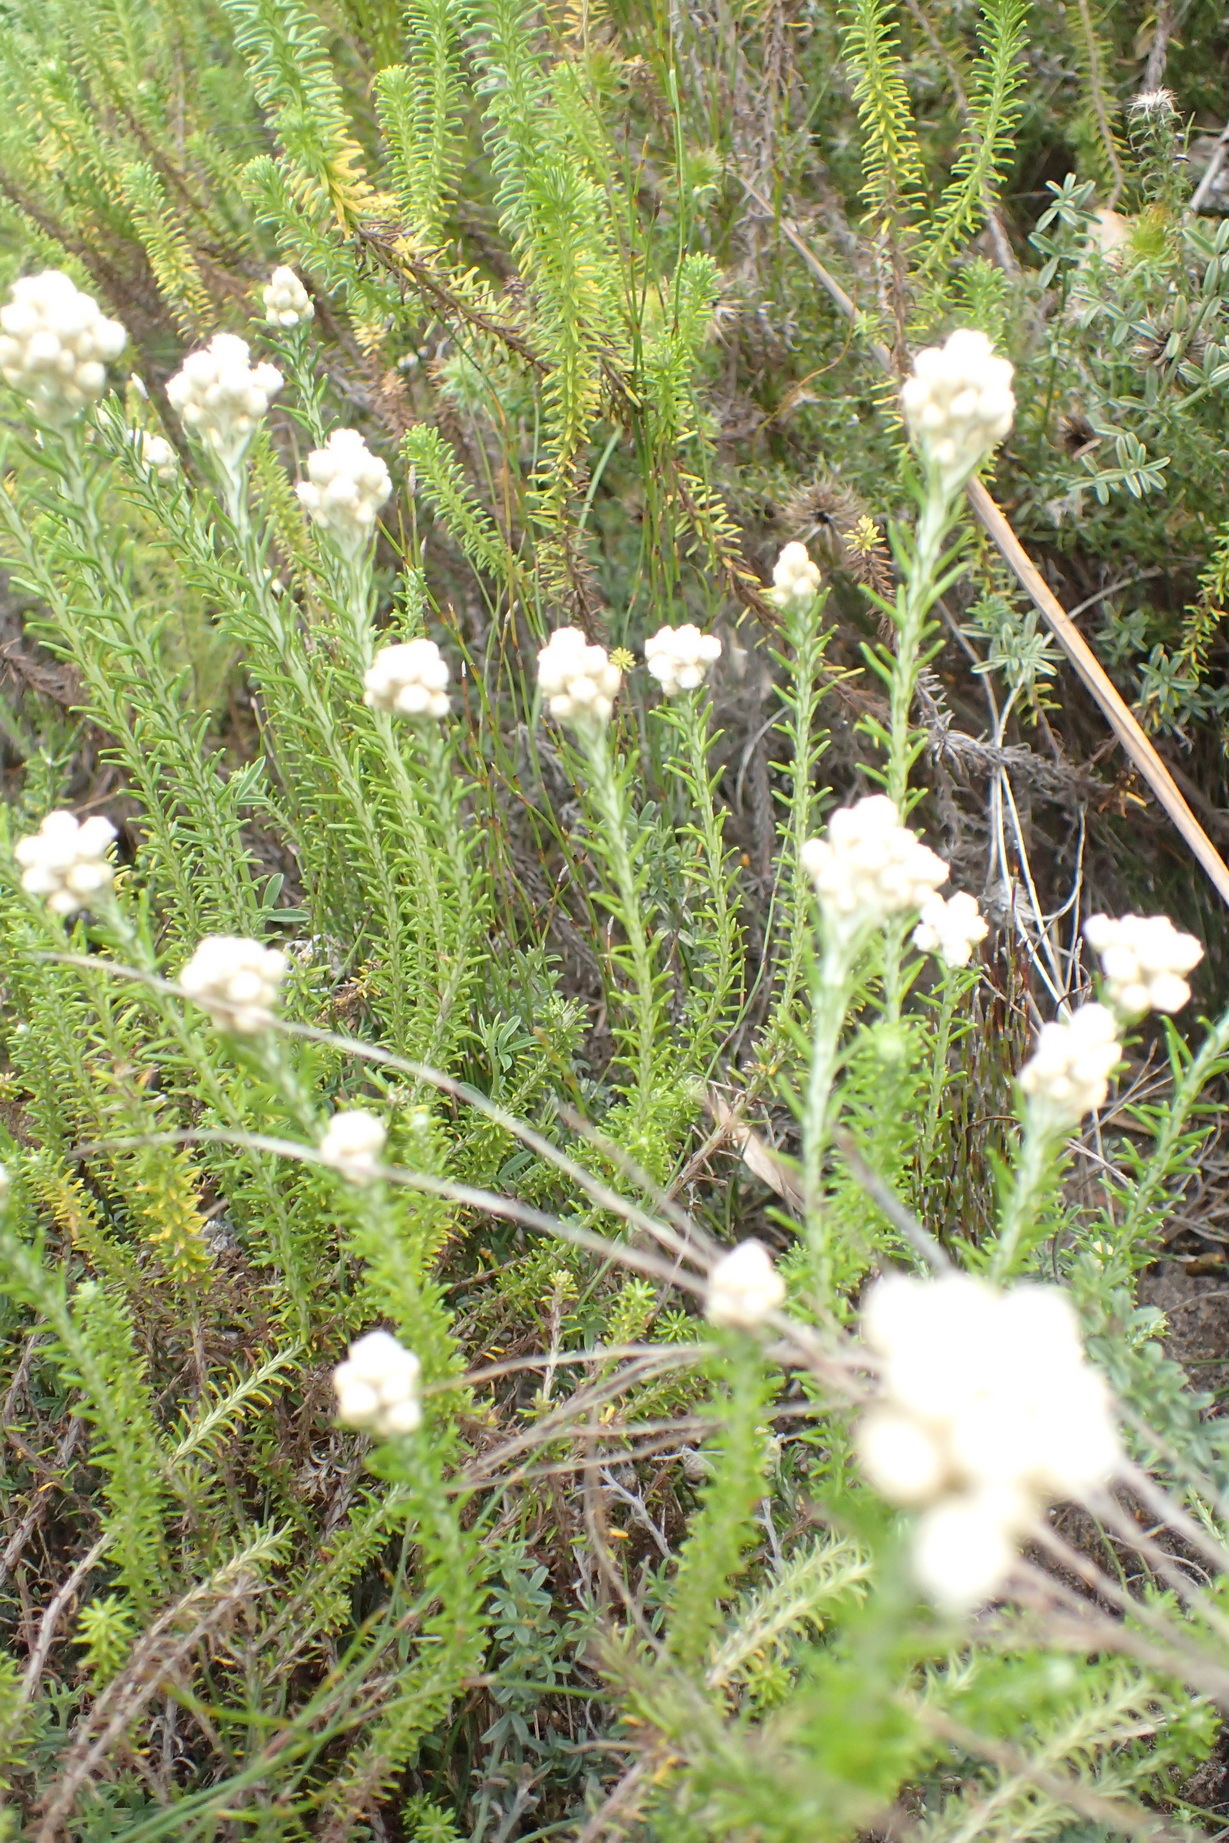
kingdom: Plantae
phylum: Tracheophyta
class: Magnoliopsida
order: Asterales
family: Asteraceae
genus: Helichrysum
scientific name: Helichrysum teretifolium
